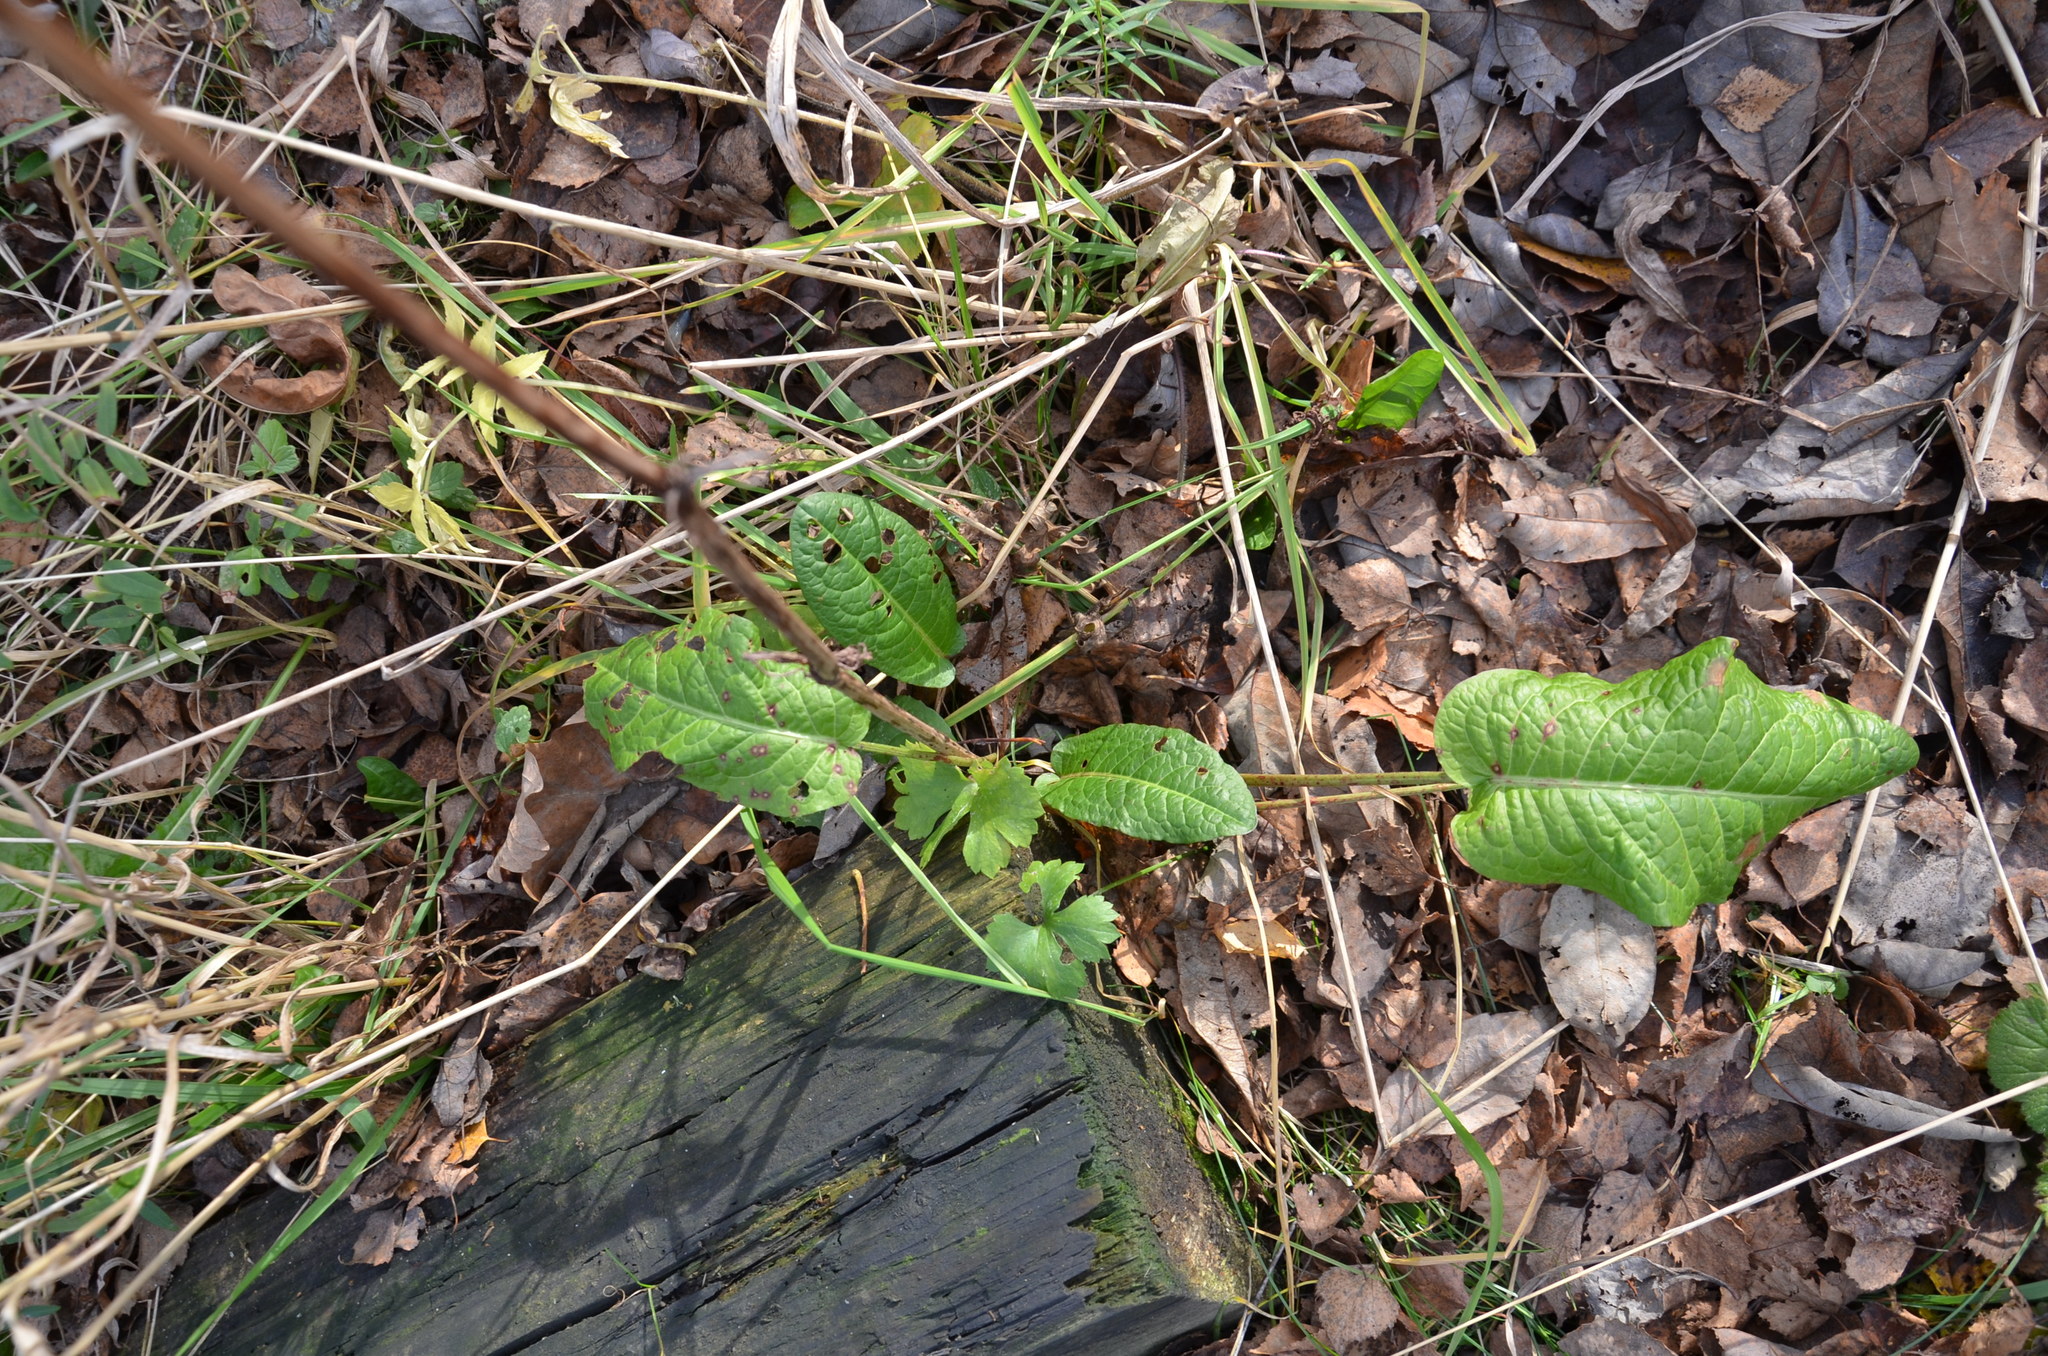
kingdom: Plantae
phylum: Tracheophyta
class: Magnoliopsida
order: Caryophyllales
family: Polygonaceae
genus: Rumex
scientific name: Rumex obtusifolius
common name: Bitter dock
